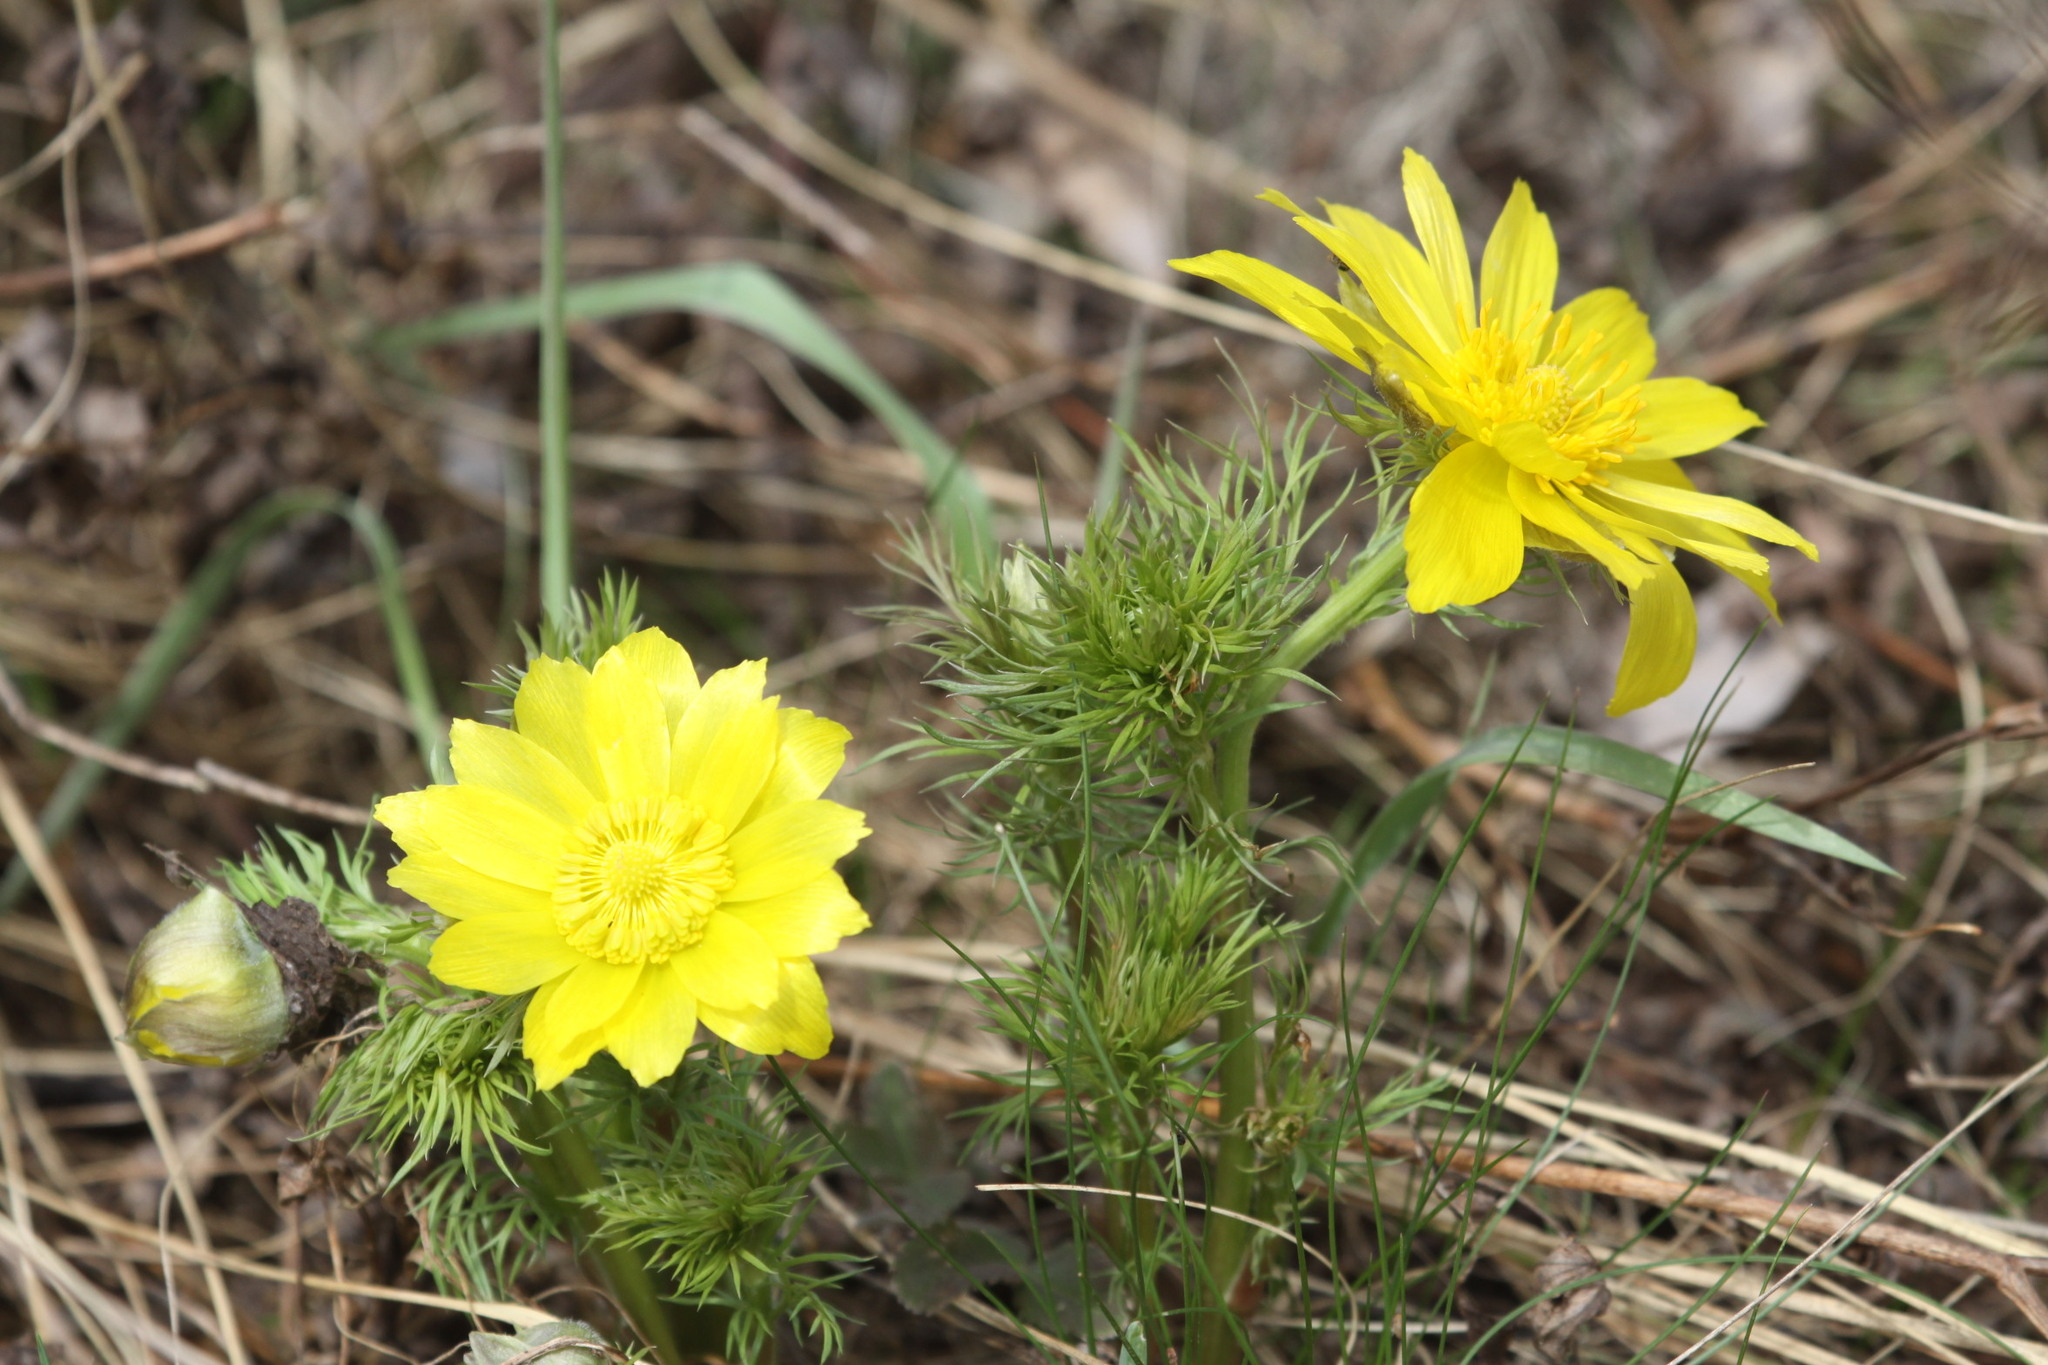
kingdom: Plantae
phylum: Tracheophyta
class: Magnoliopsida
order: Ranunculales
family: Ranunculaceae
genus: Adonis
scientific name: Adonis vernalis
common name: Yellow pheasants-eye
